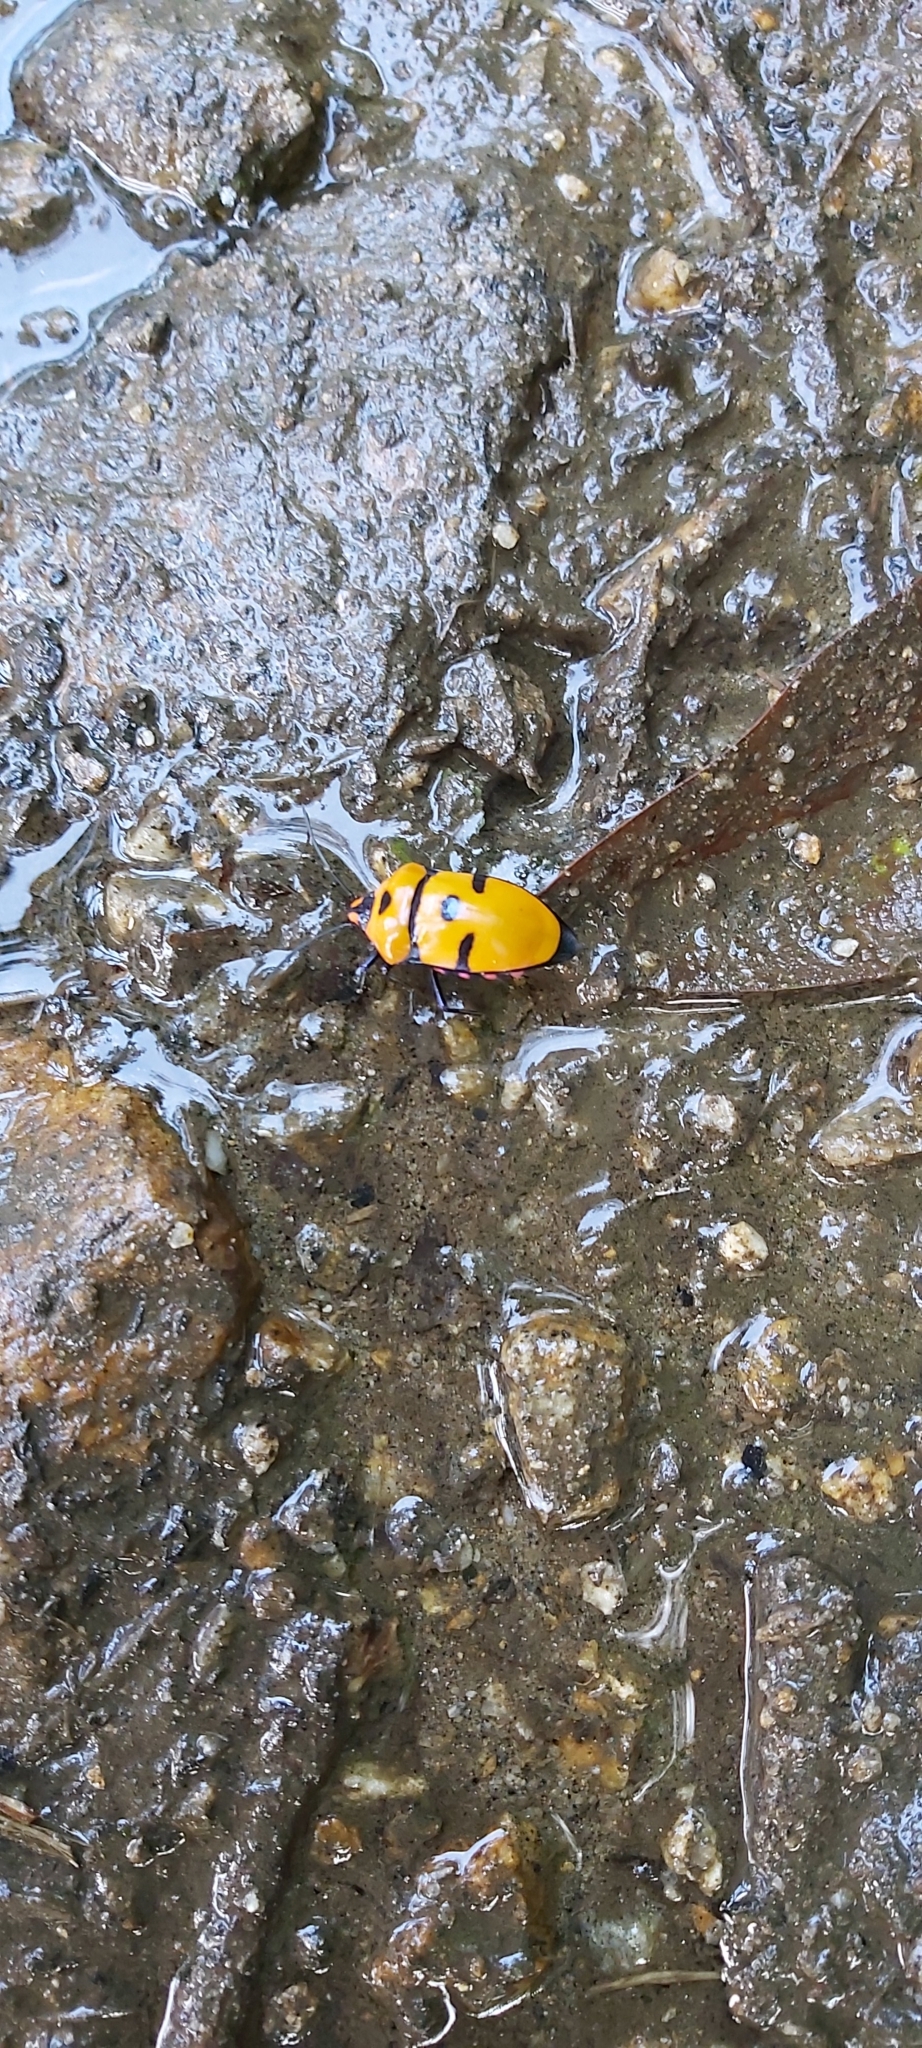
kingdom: Animalia
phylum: Arthropoda
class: Insecta
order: Hemiptera
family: Scutelleridae
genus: Eucorysses
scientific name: Eucorysses grandis
